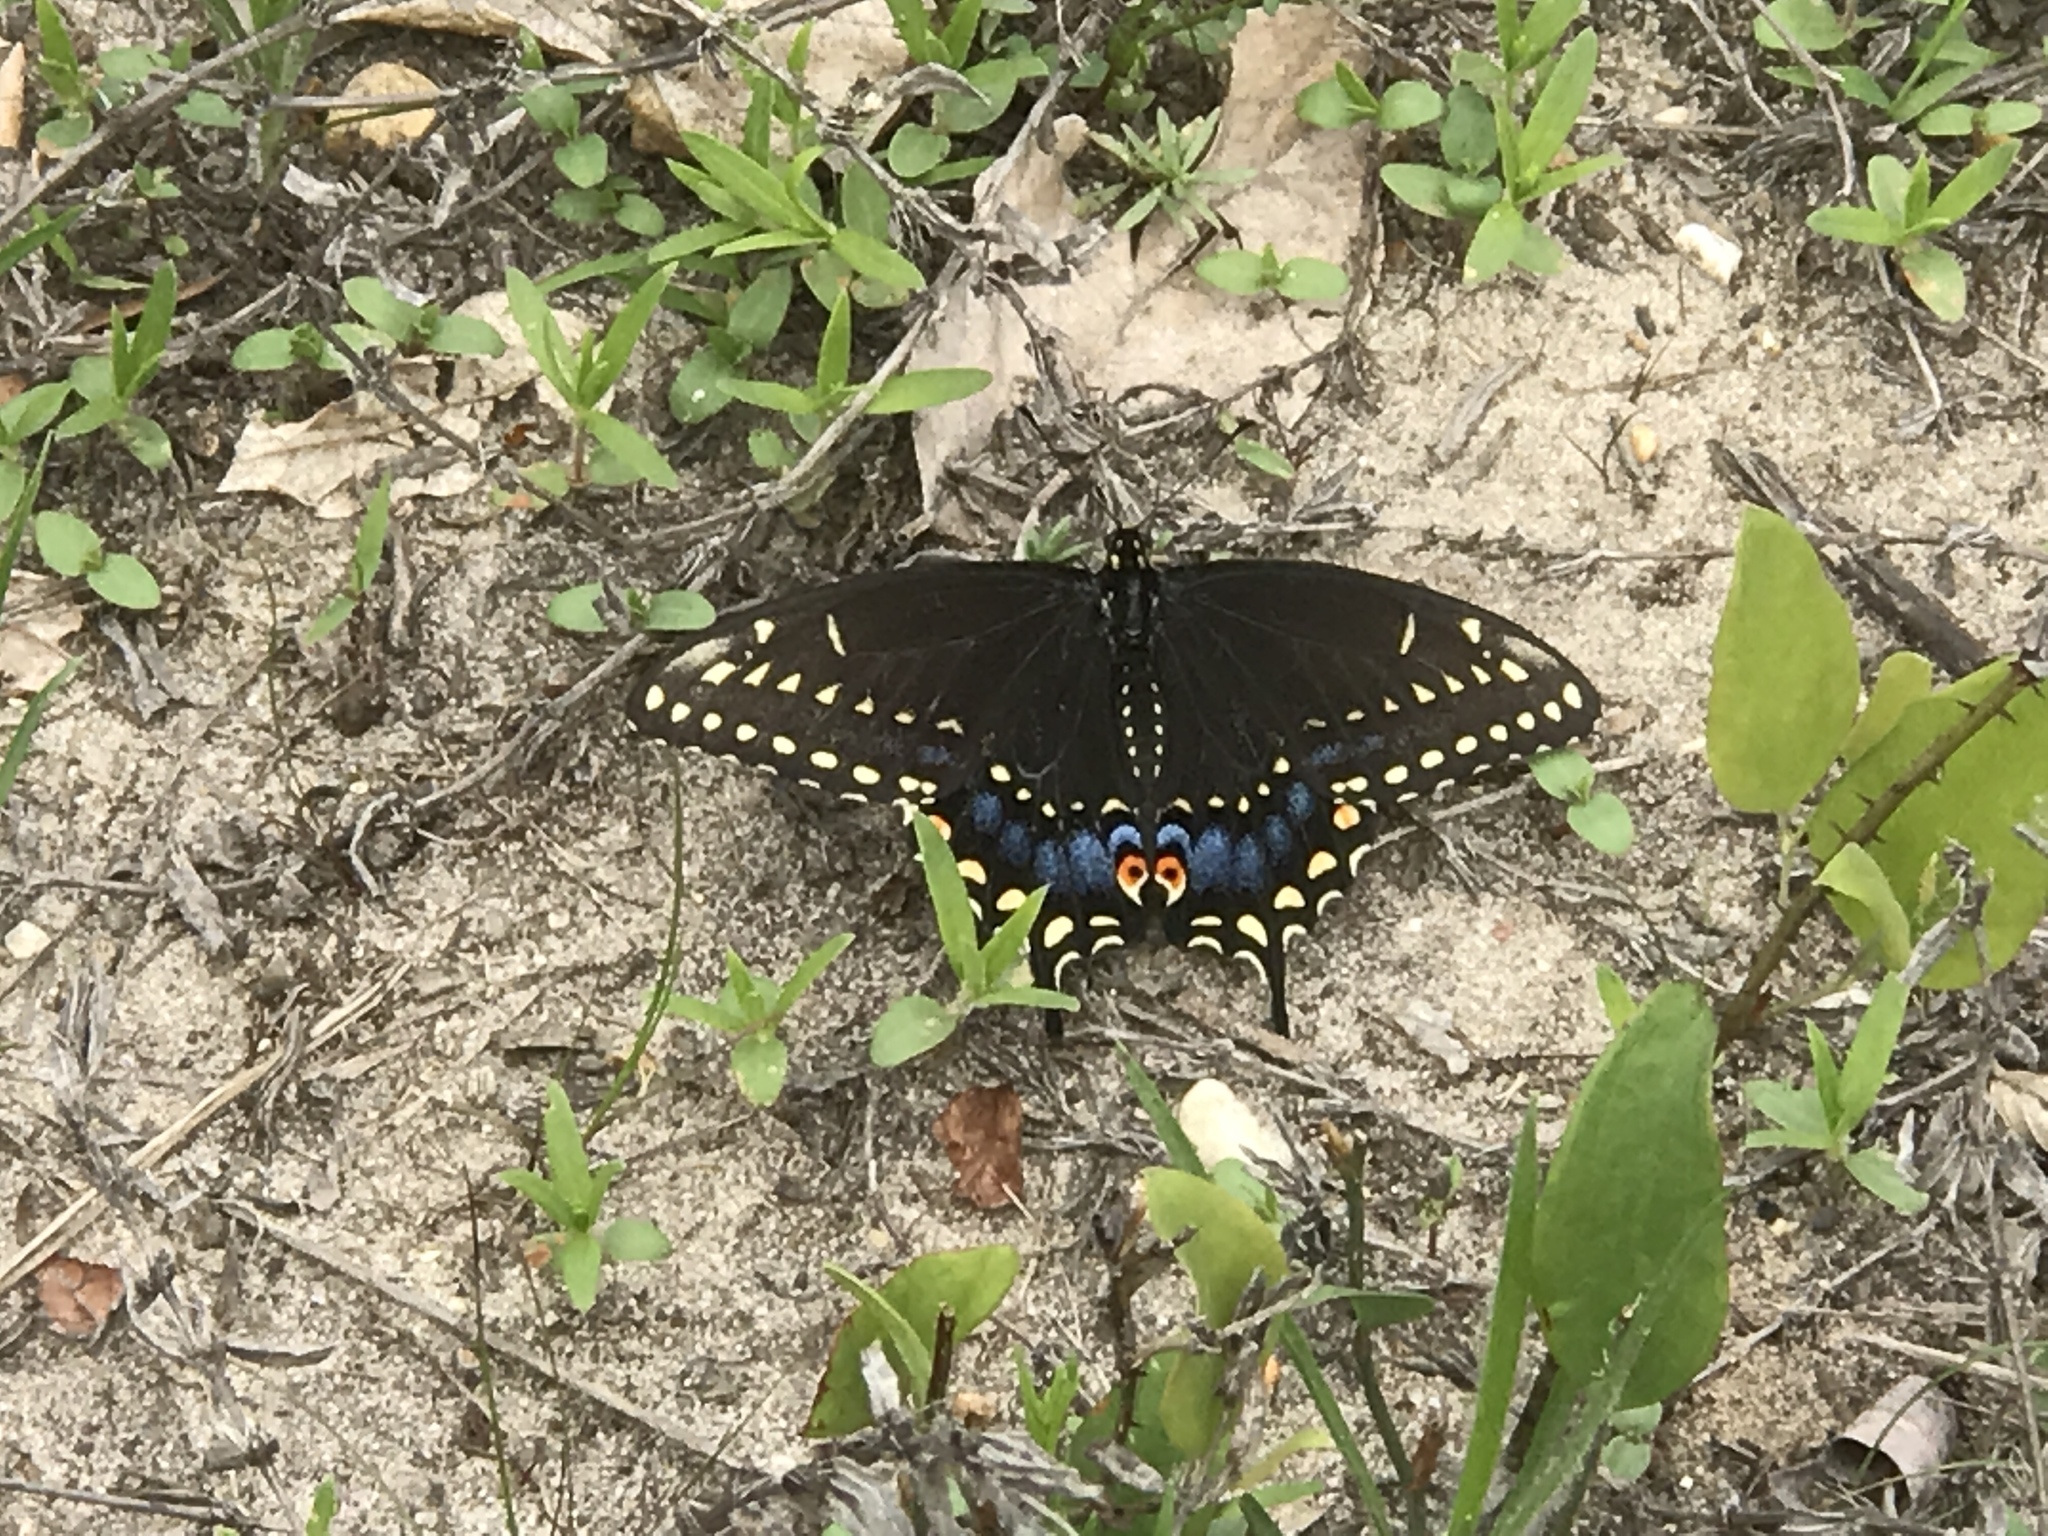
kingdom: Animalia
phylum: Arthropoda
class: Insecta
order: Lepidoptera
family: Papilionidae
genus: Papilio
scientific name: Papilio polyxenes
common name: Black swallowtail
